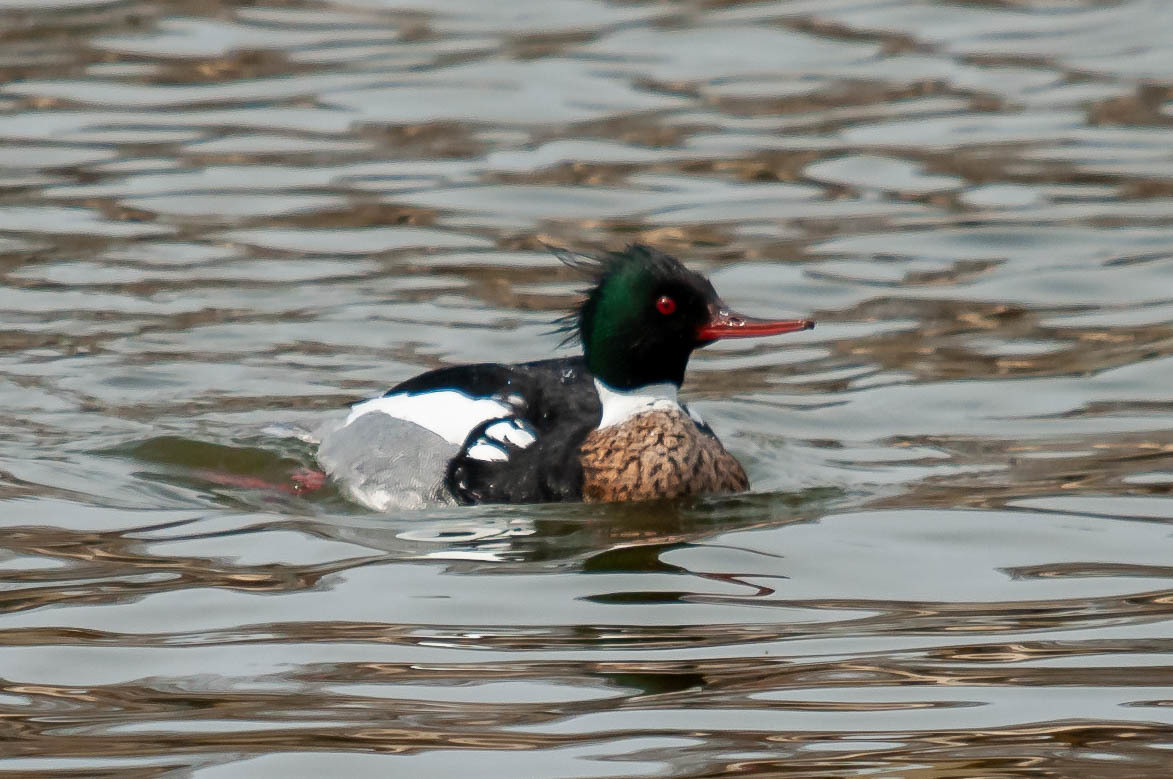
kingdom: Animalia
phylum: Chordata
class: Aves
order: Anseriformes
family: Anatidae
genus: Mergus
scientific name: Mergus serrator
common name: Red-breasted merganser
